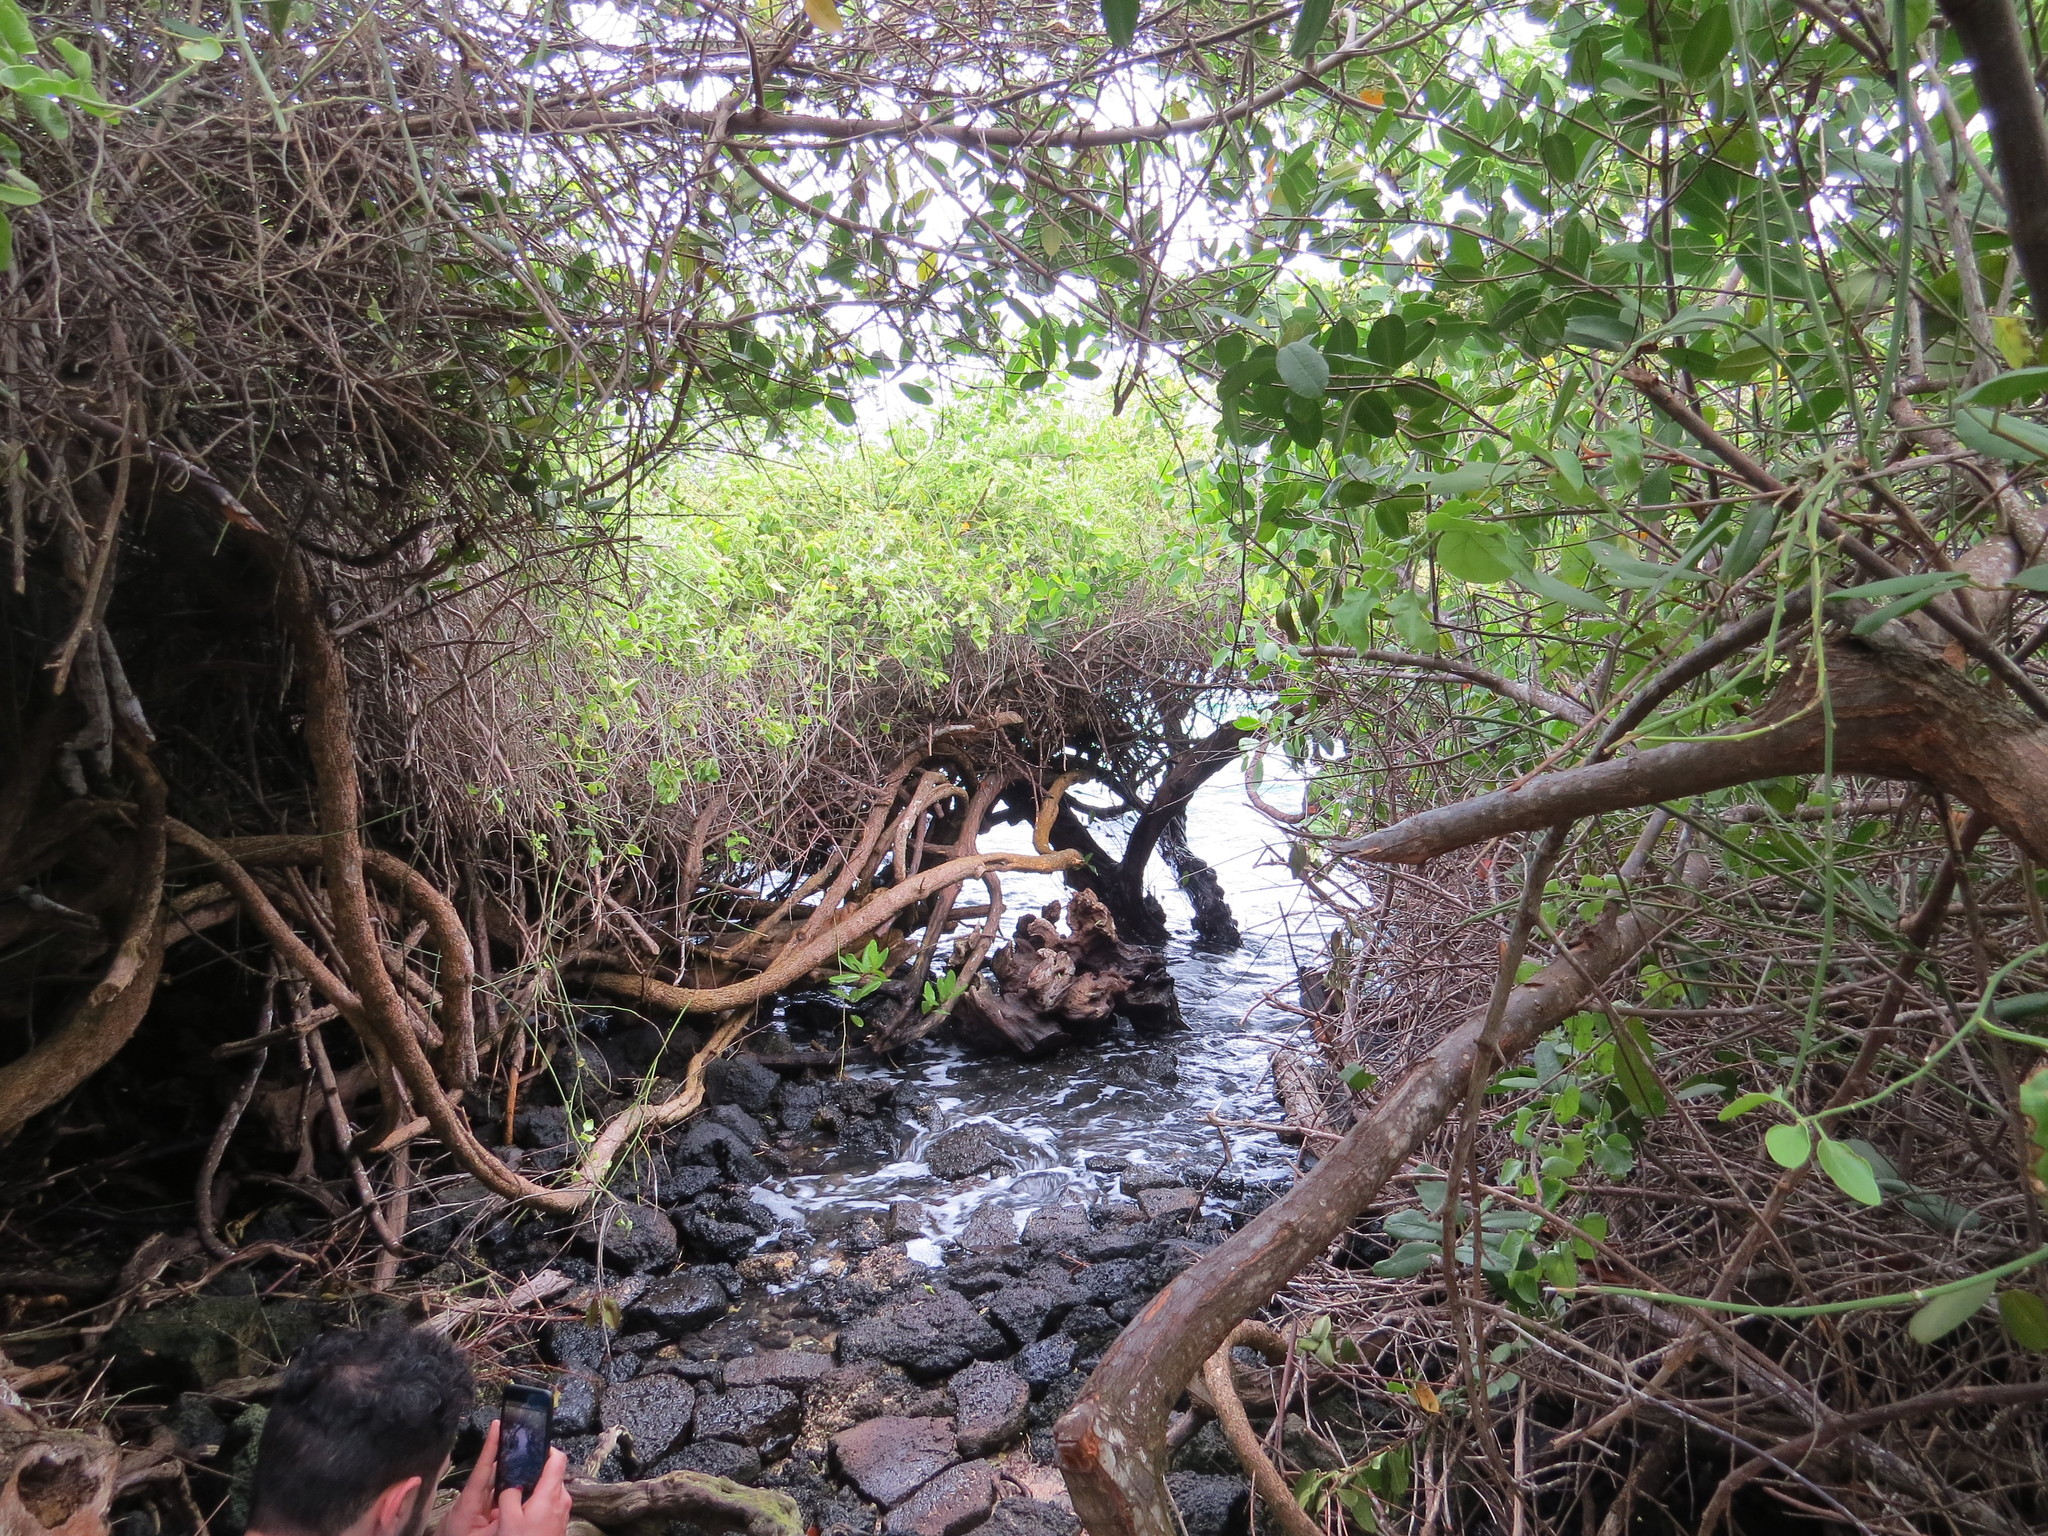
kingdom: Plantae
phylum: Tracheophyta
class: Magnoliopsida
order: Lamiales
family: Acanthaceae
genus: Avicennia
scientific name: Avicennia germinans
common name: Black mangrove
